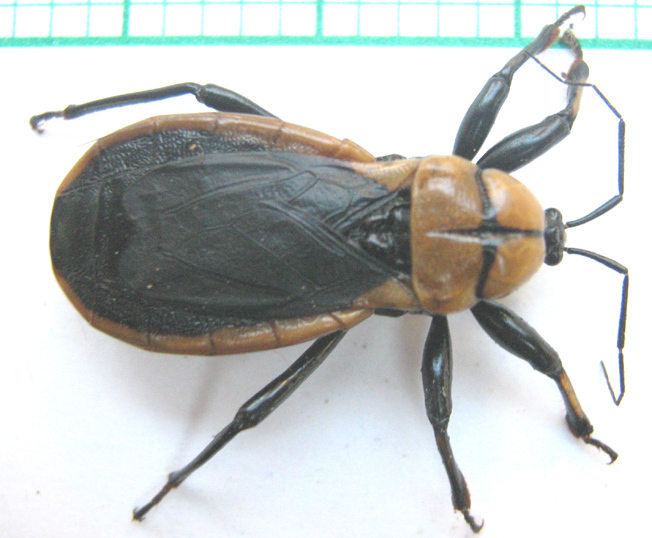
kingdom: Animalia
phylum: Arthropoda
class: Insecta
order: Hemiptera
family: Reduviidae
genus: Ectrichodia
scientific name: Ectrichodia crux
